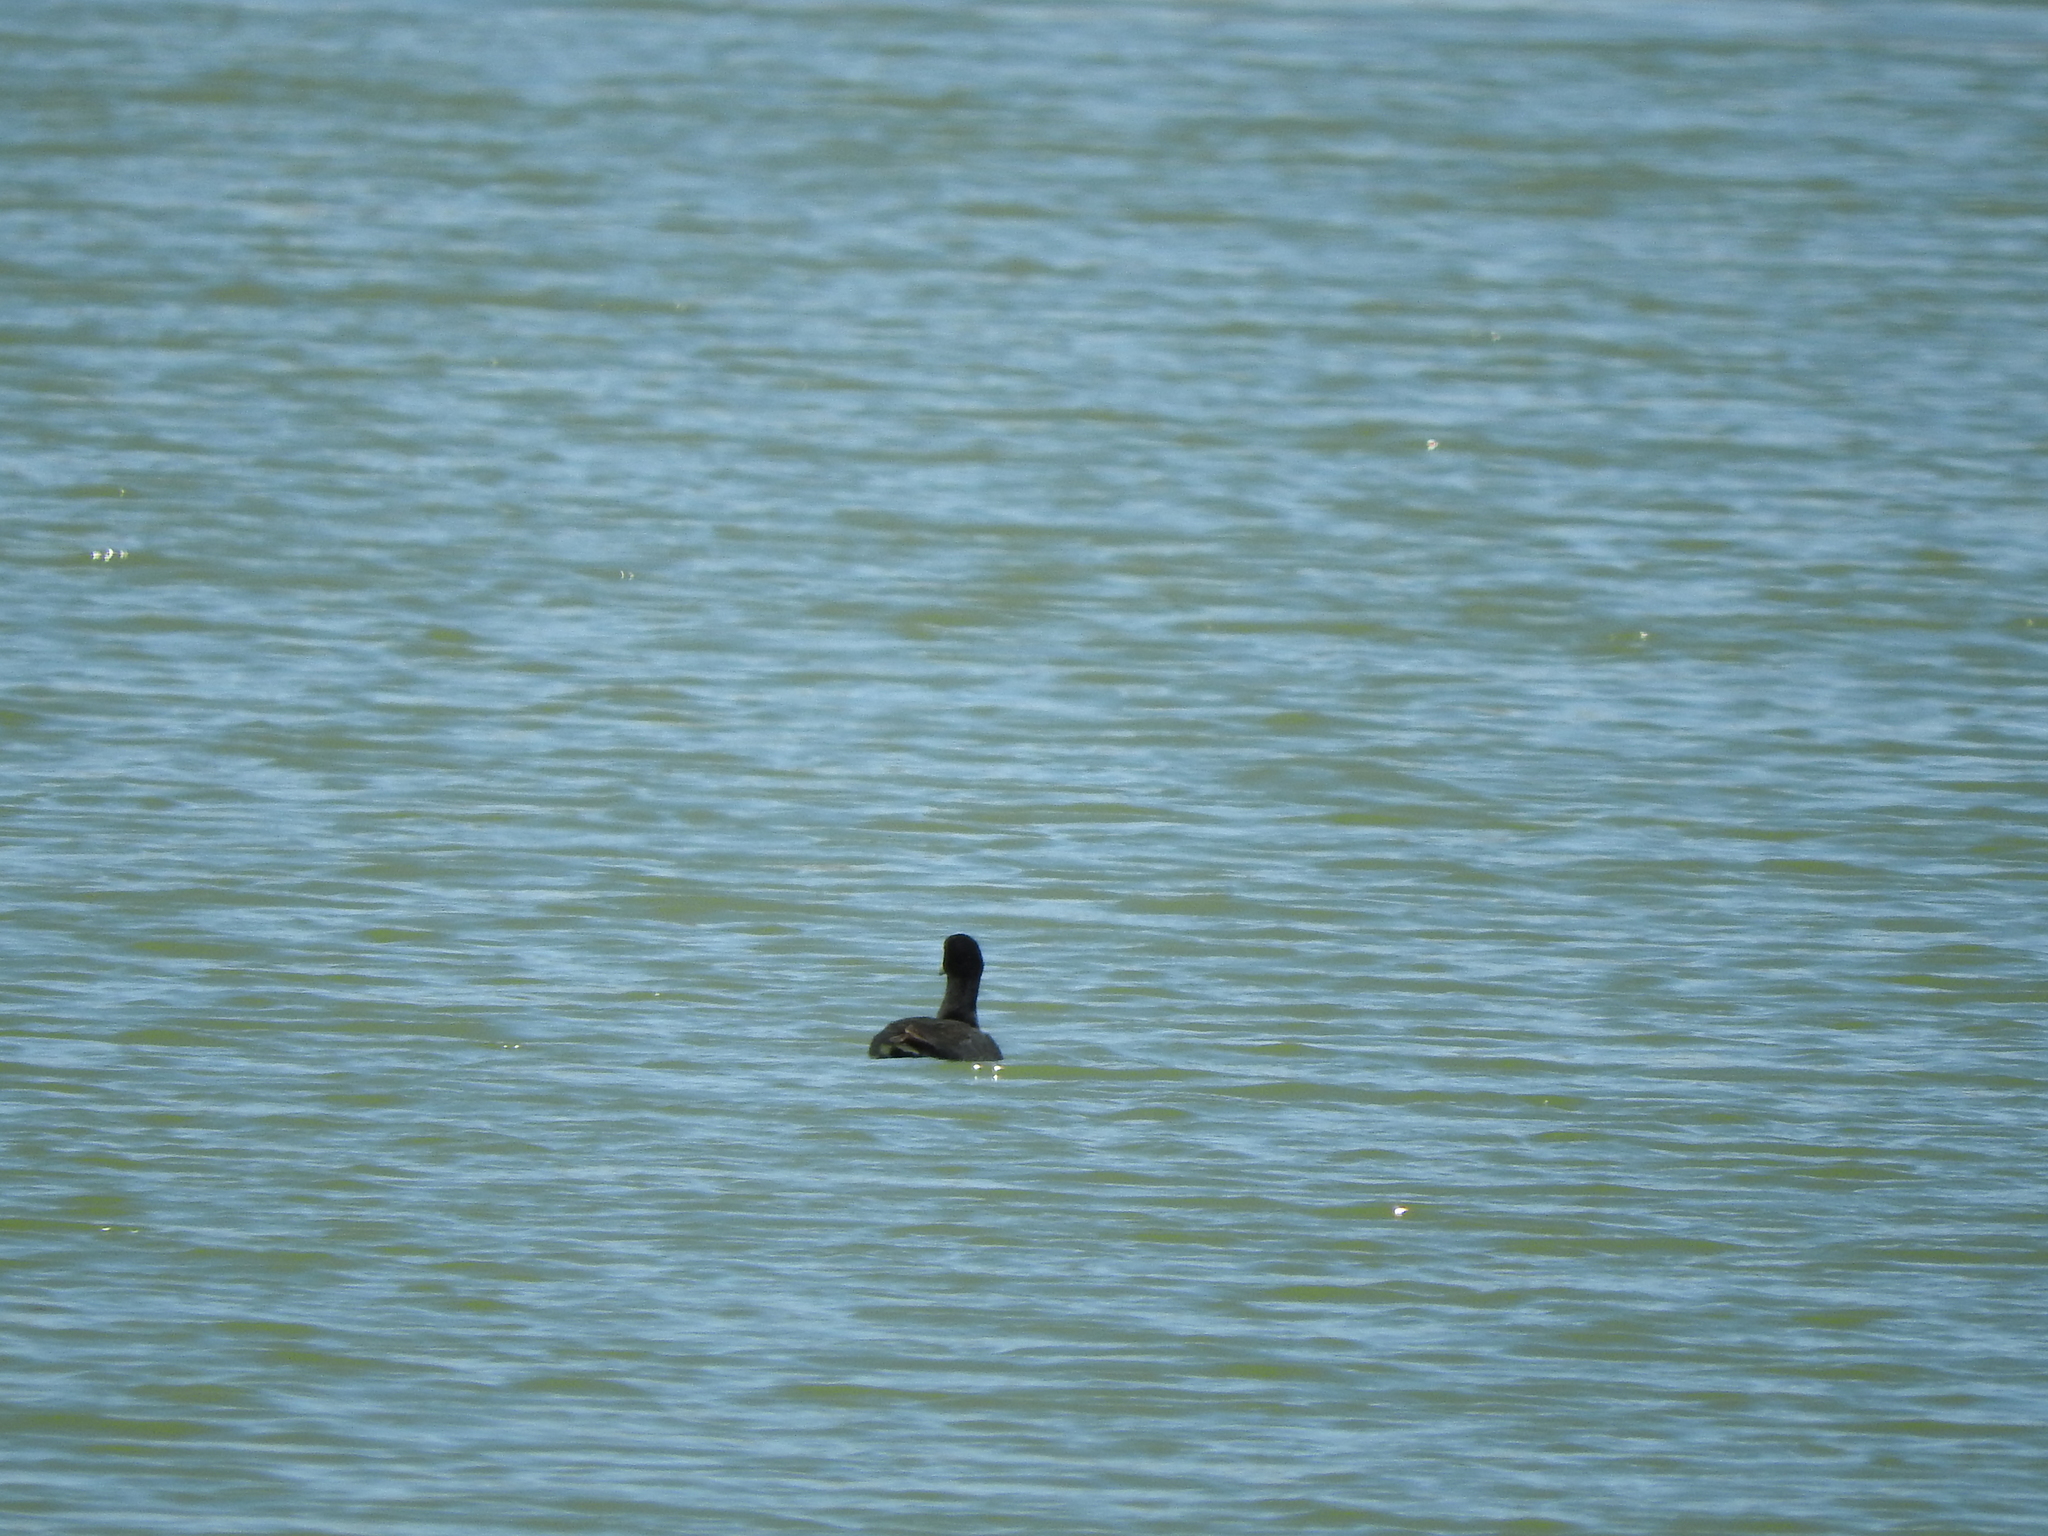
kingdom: Animalia
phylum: Chordata
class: Aves
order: Gruiformes
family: Rallidae
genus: Fulica
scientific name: Fulica americana
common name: American coot
